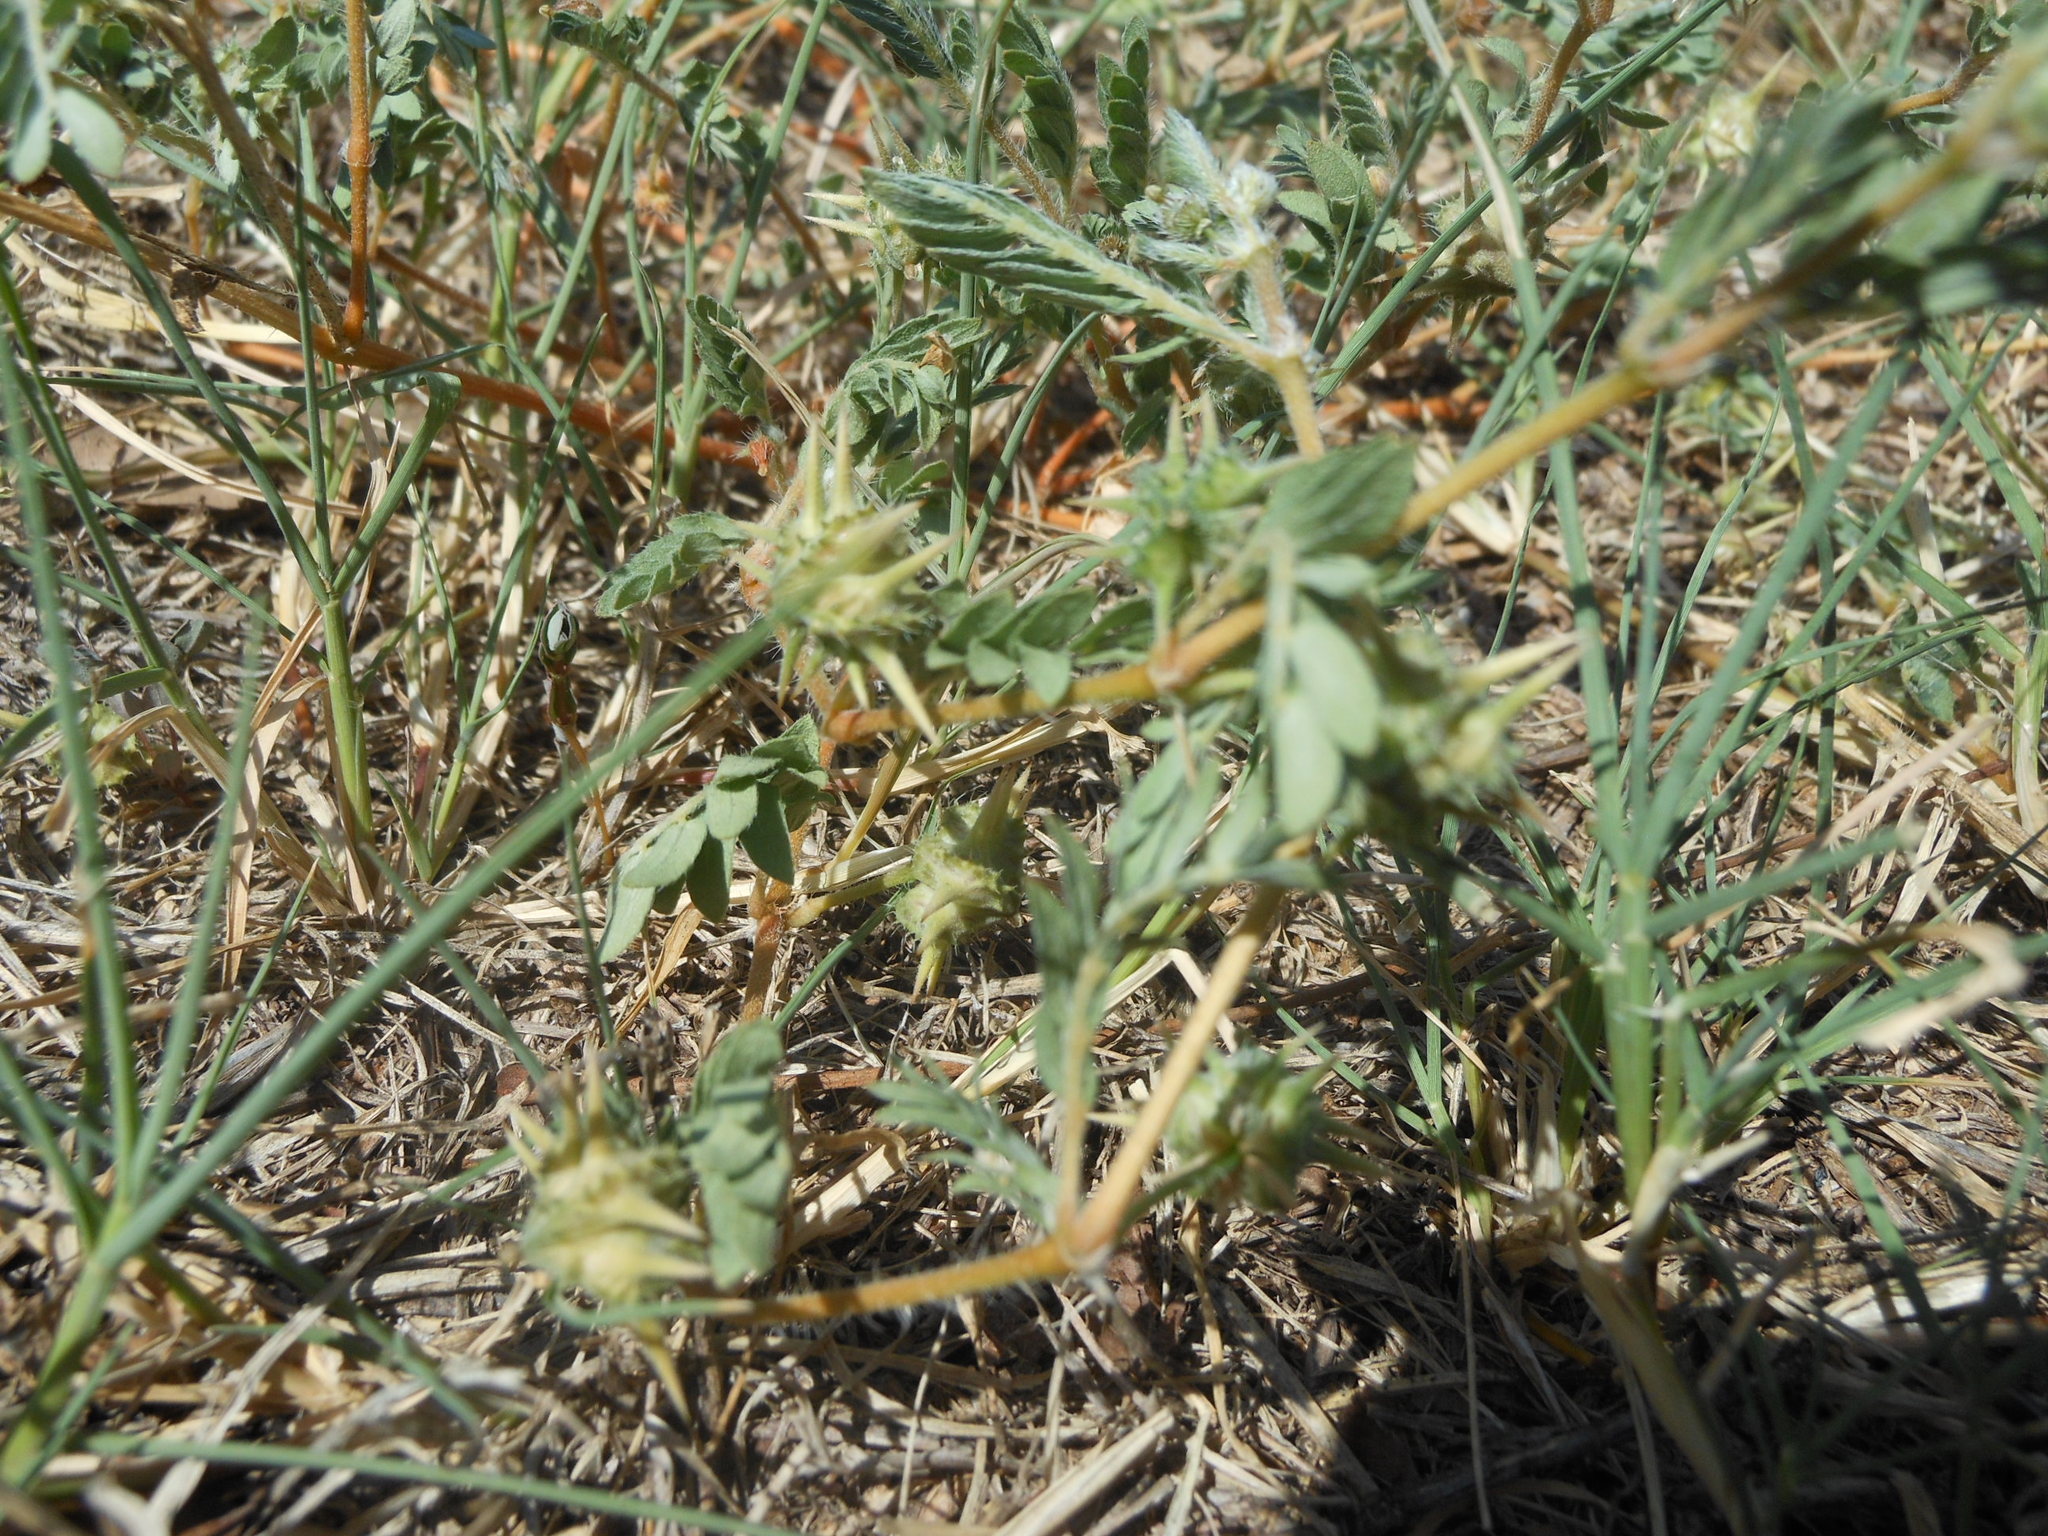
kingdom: Plantae
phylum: Tracheophyta
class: Magnoliopsida
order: Zygophyllales
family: Zygophyllaceae
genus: Tribulus
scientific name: Tribulus terrestris
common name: Puncturevine
